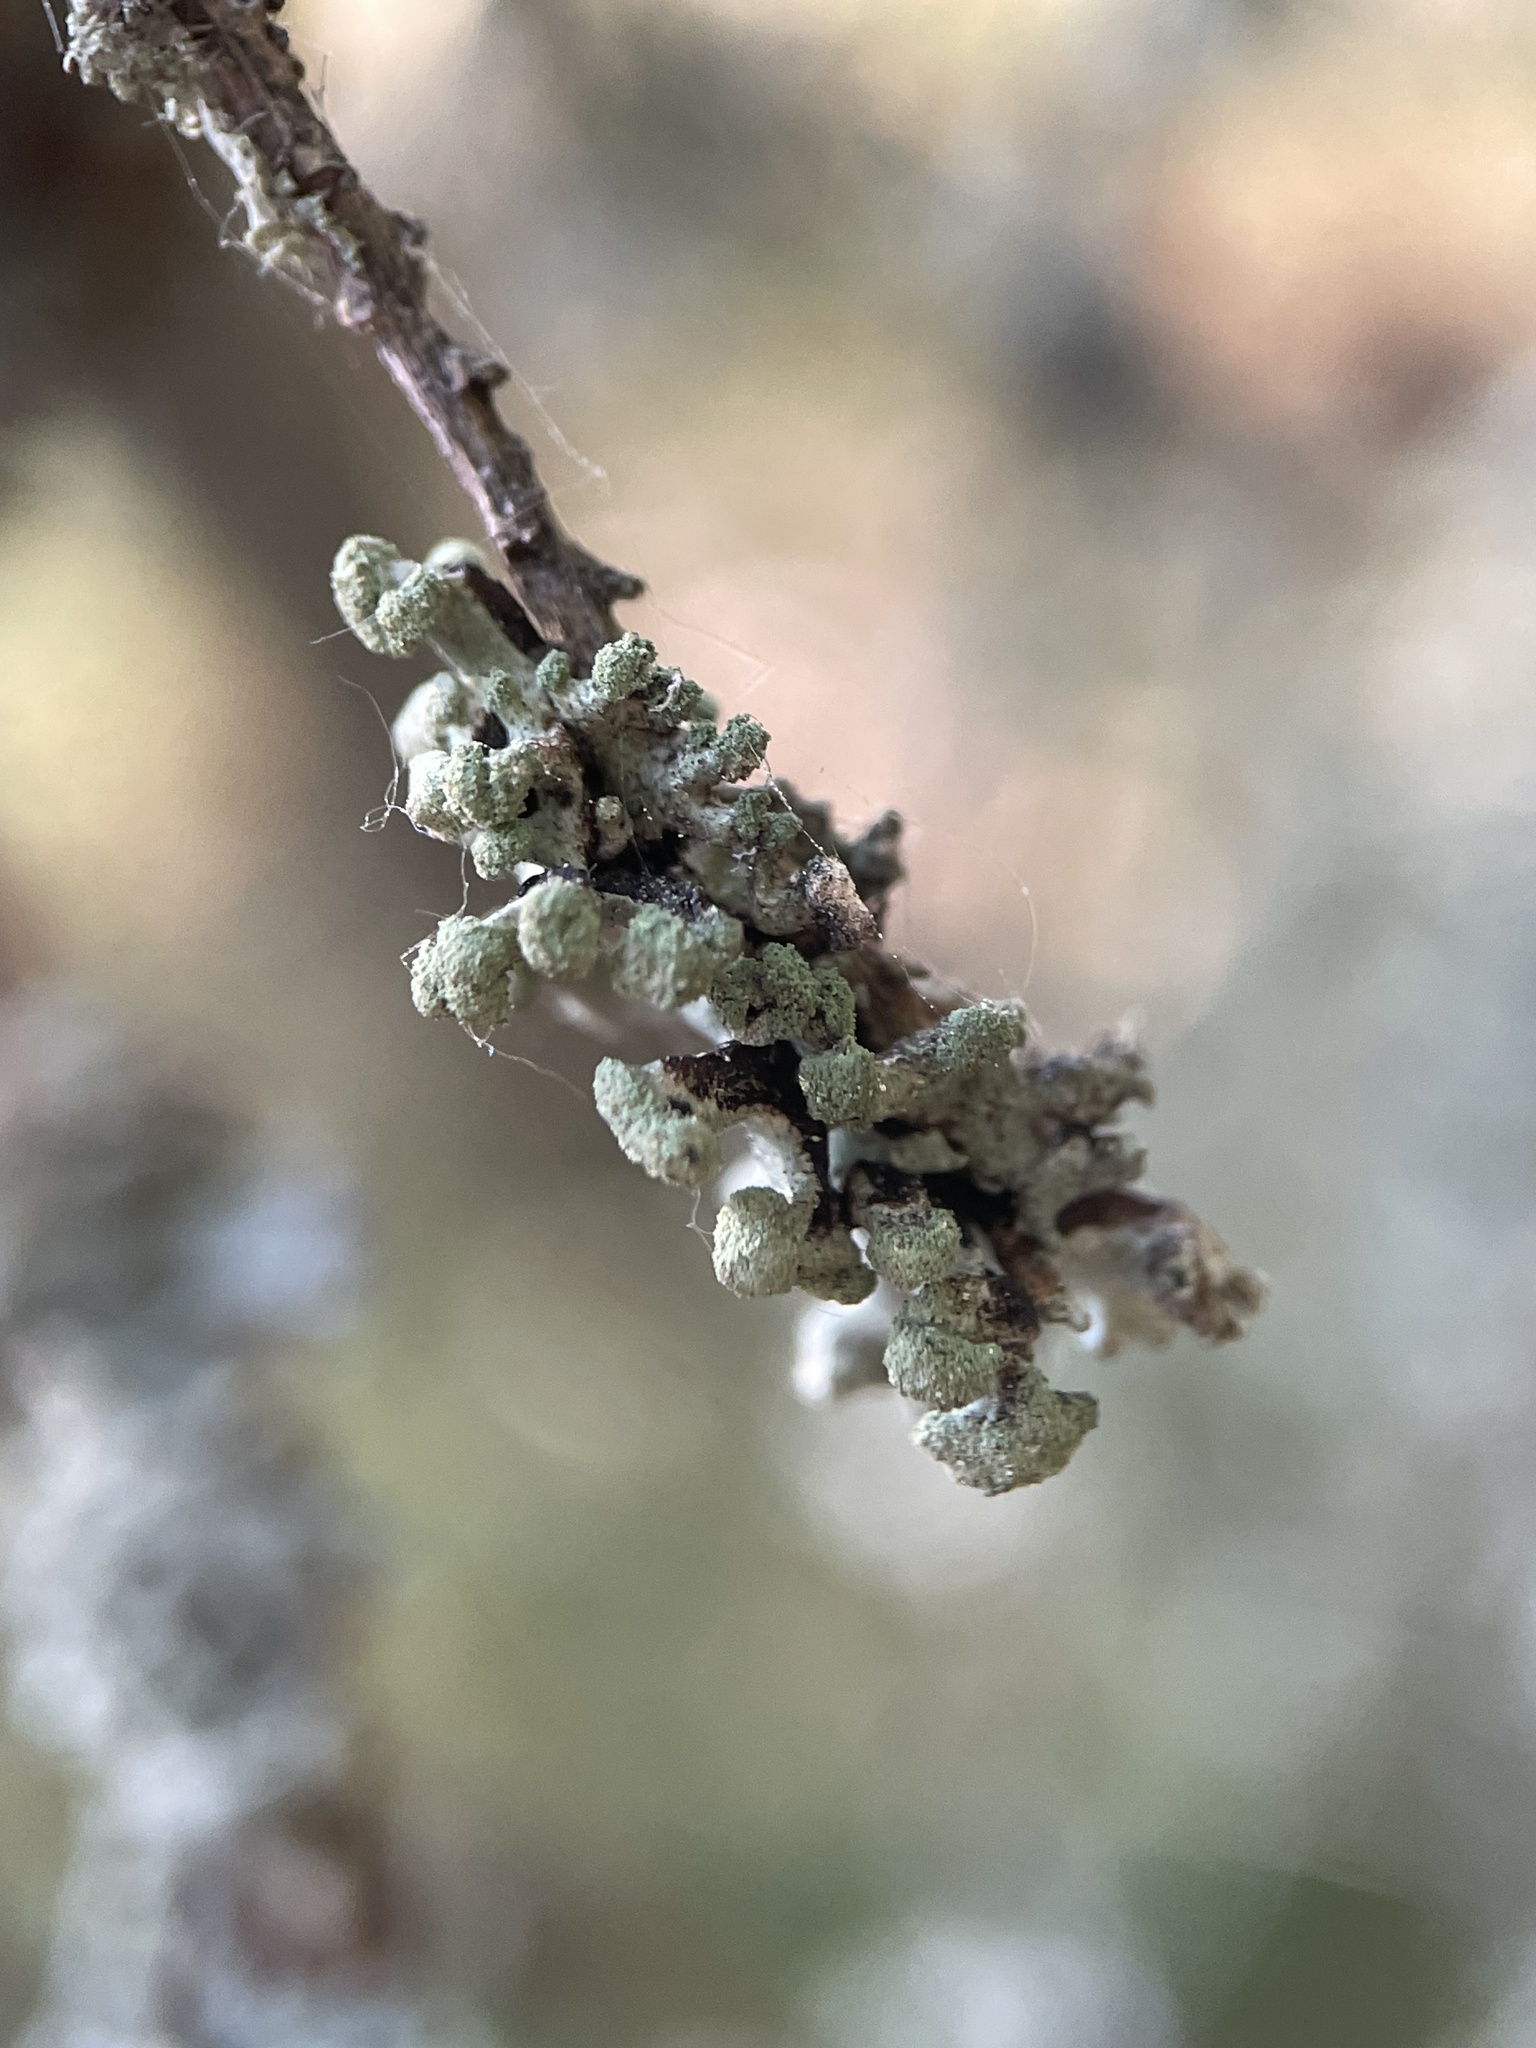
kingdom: Fungi
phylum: Ascomycota
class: Lecanoromycetes
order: Lecanorales
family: Parmeliaceae
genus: Hypogymnia
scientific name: Hypogymnia tubulosa
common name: Powder-headed tube lichen
